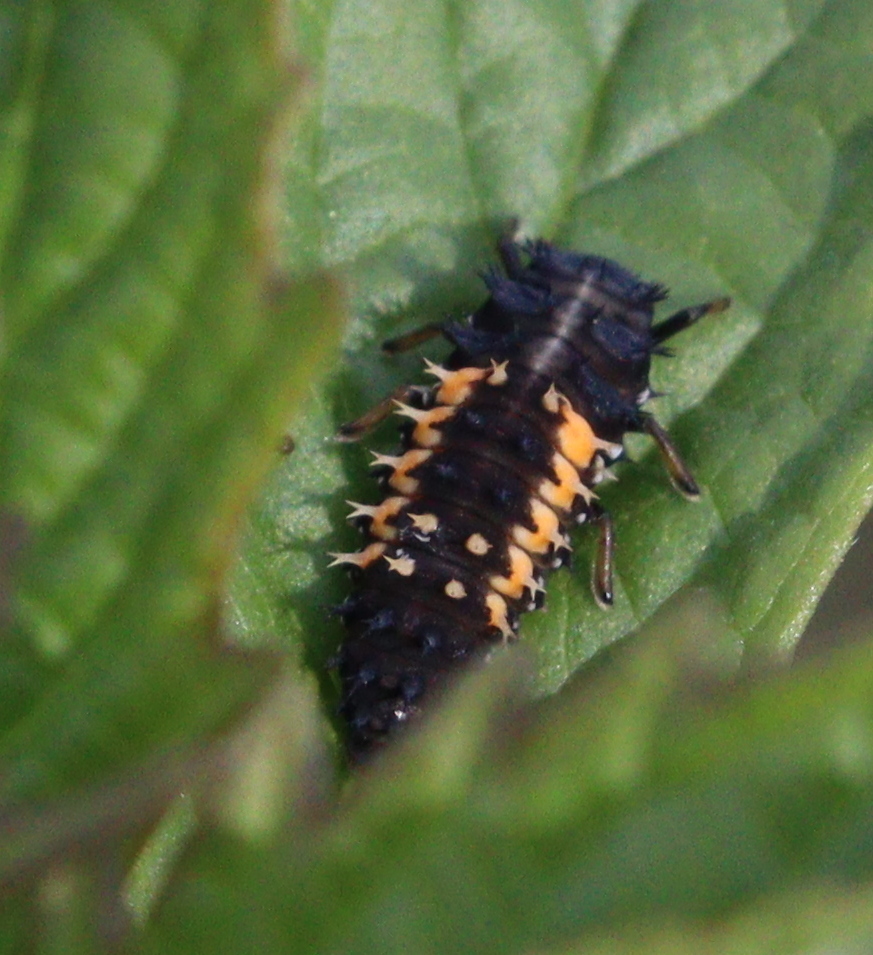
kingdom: Animalia
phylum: Arthropoda
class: Insecta
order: Coleoptera
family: Coccinellidae
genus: Harmonia
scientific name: Harmonia axyridis
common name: Harlequin ladybird
